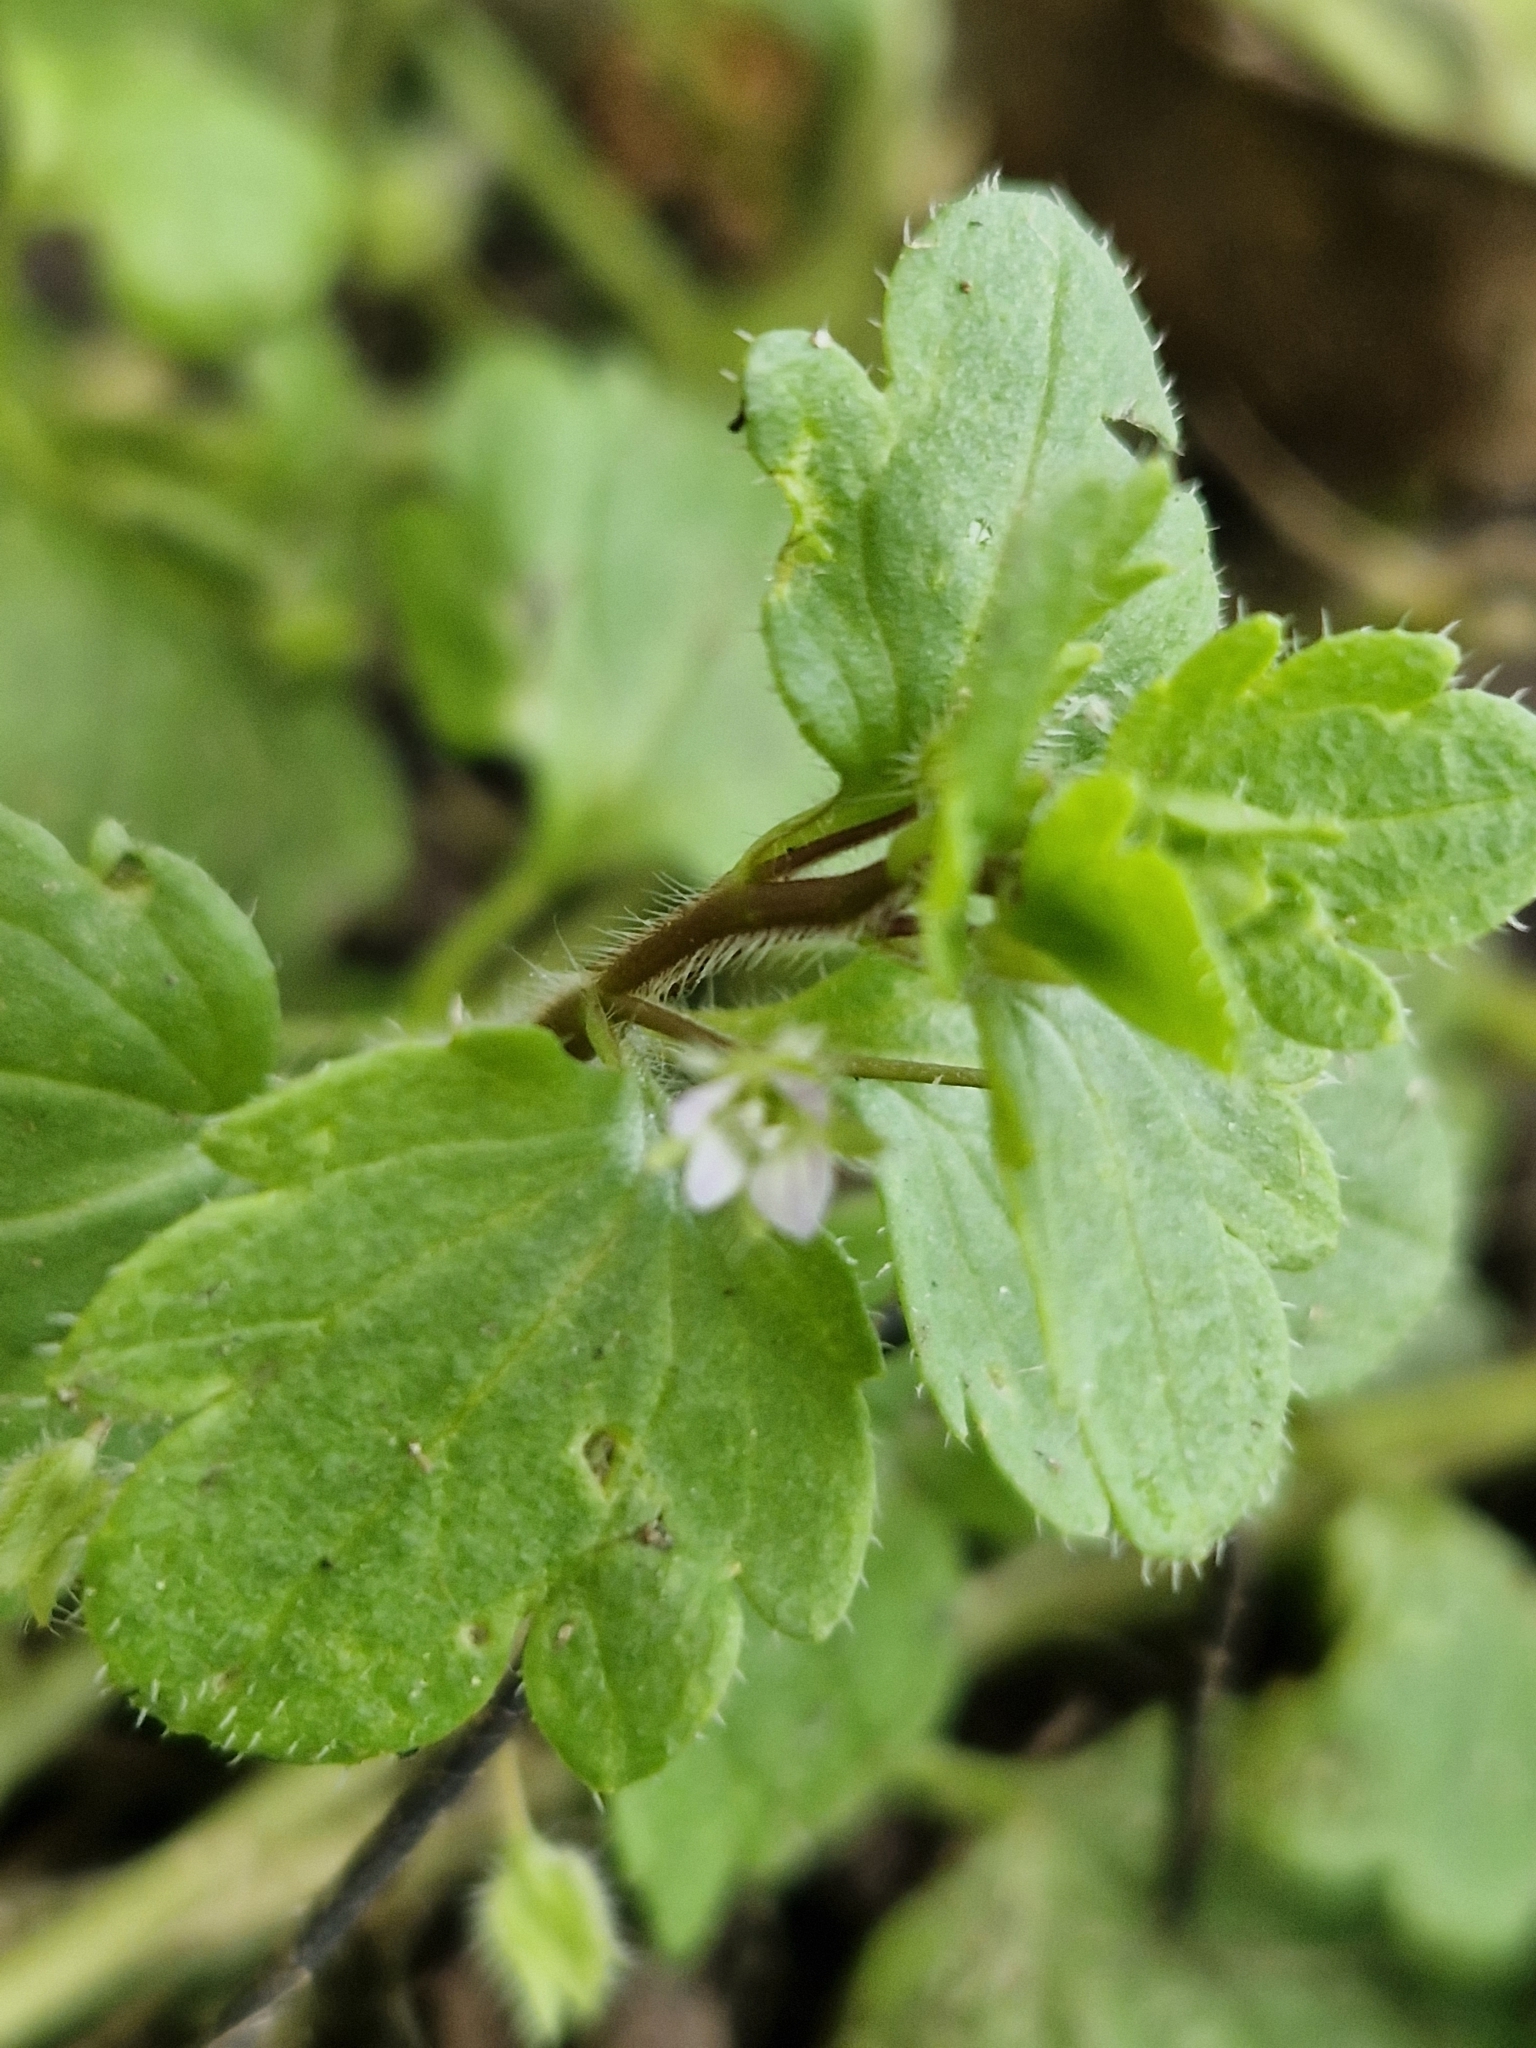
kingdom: Plantae
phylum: Tracheophyta
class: Magnoliopsida
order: Lamiales
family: Plantaginaceae
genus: Veronica
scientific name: Veronica sublobata
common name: False ivy-leaved speedwell
